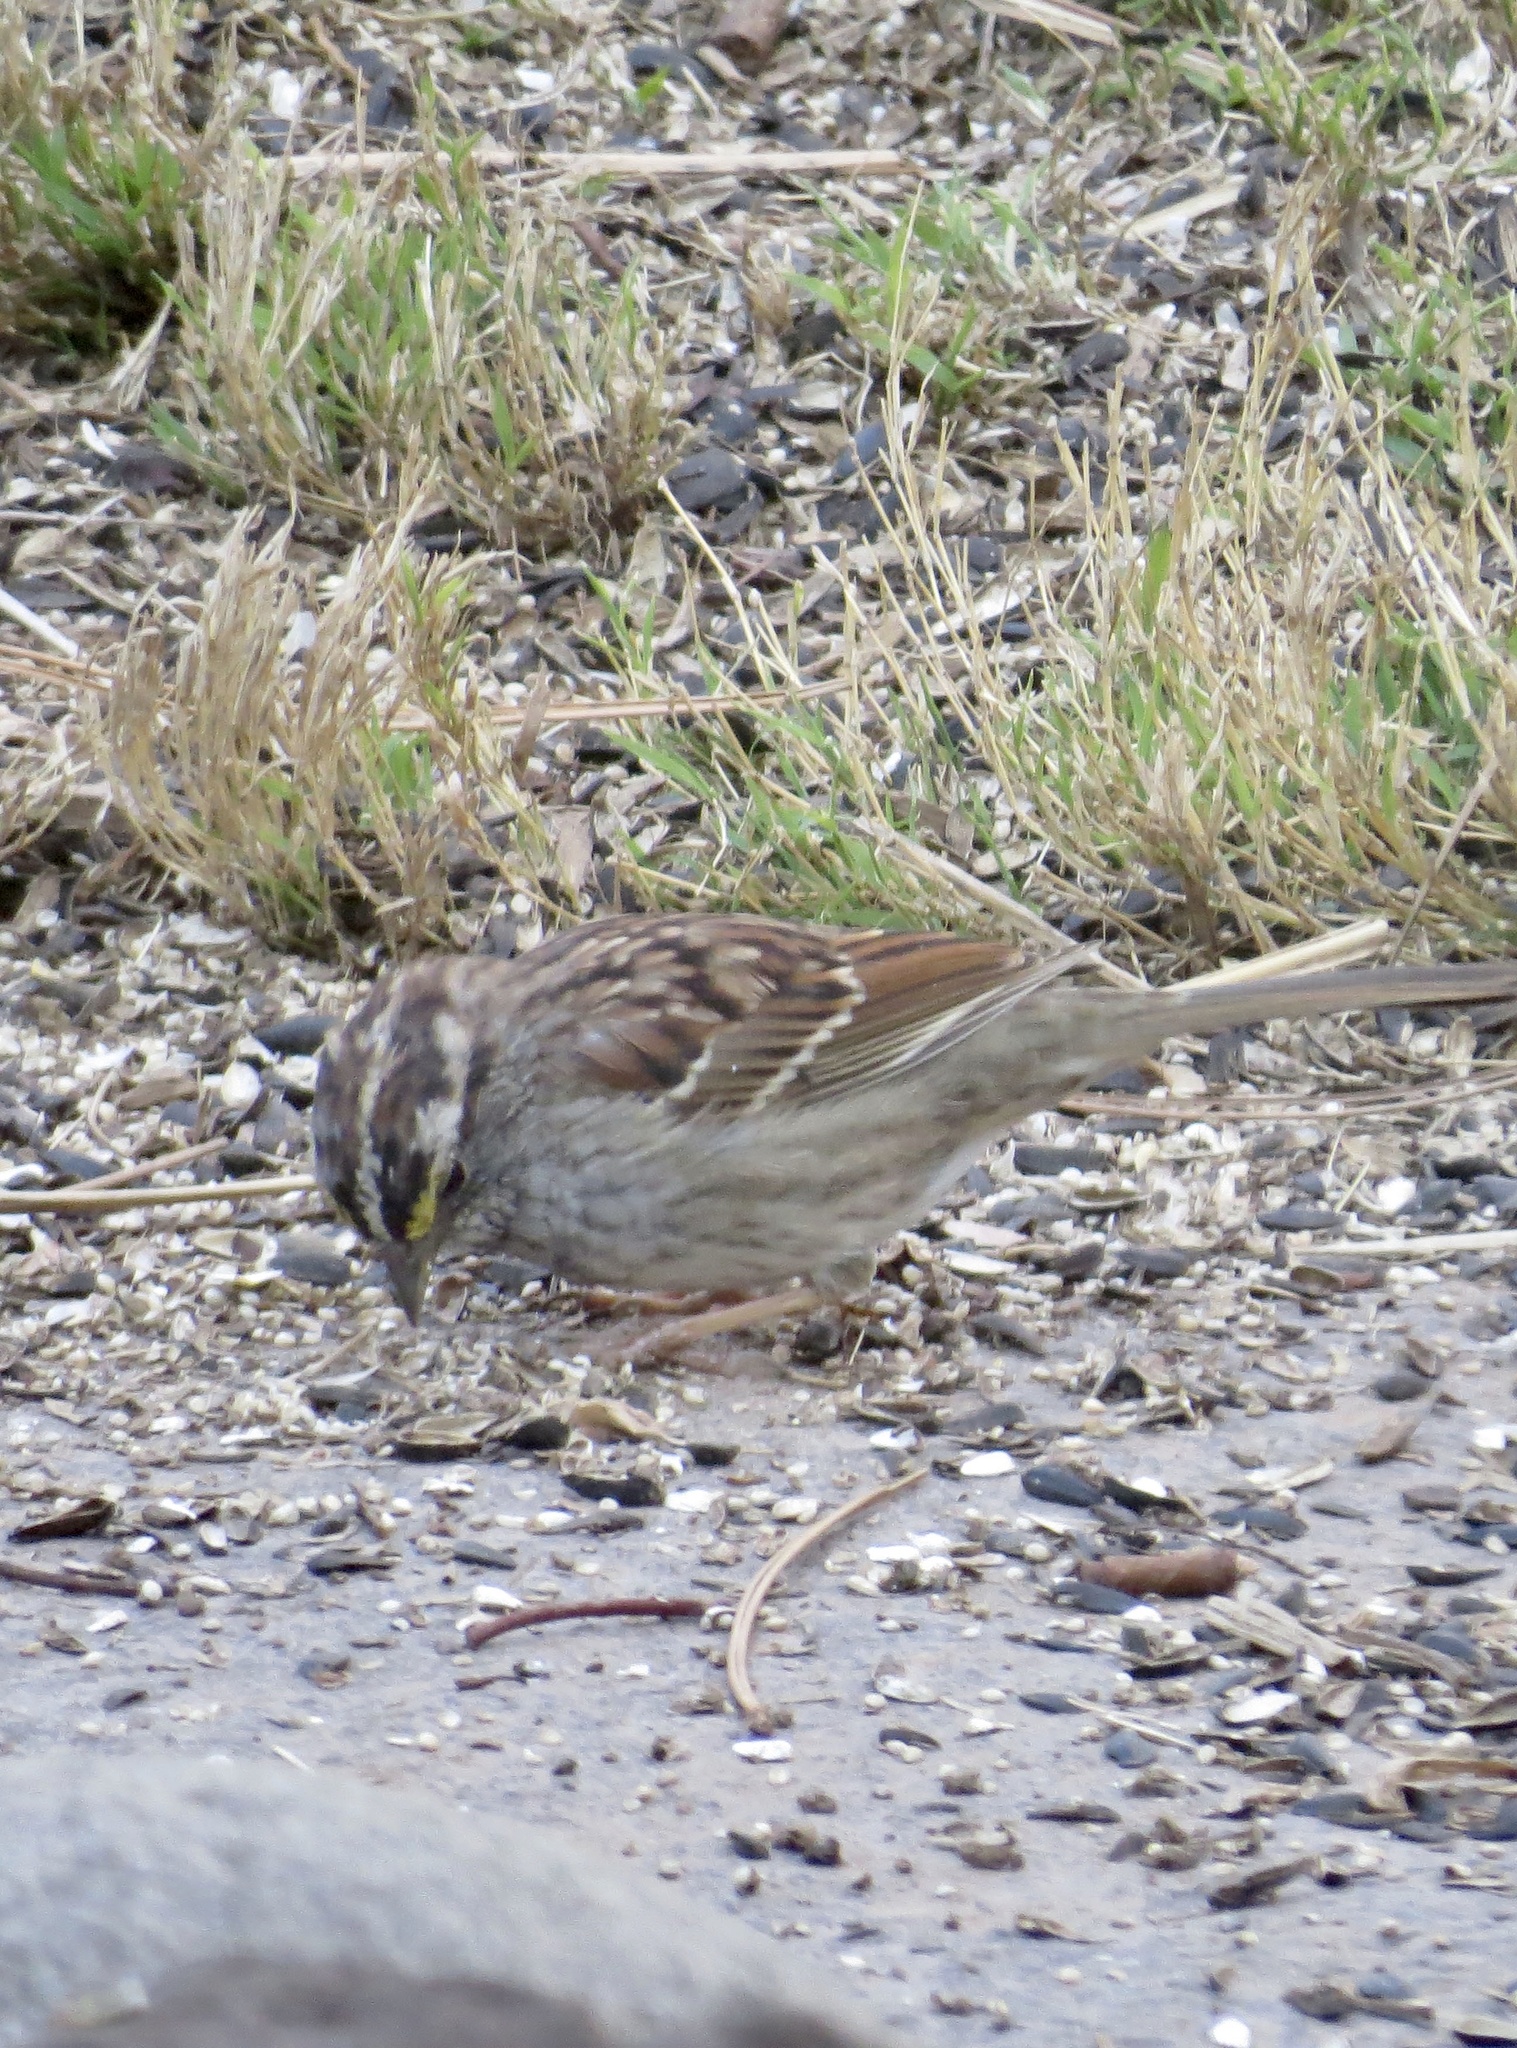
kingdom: Animalia
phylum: Chordata
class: Aves
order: Passeriformes
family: Passerellidae
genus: Zonotrichia
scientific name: Zonotrichia albicollis
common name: White-throated sparrow
